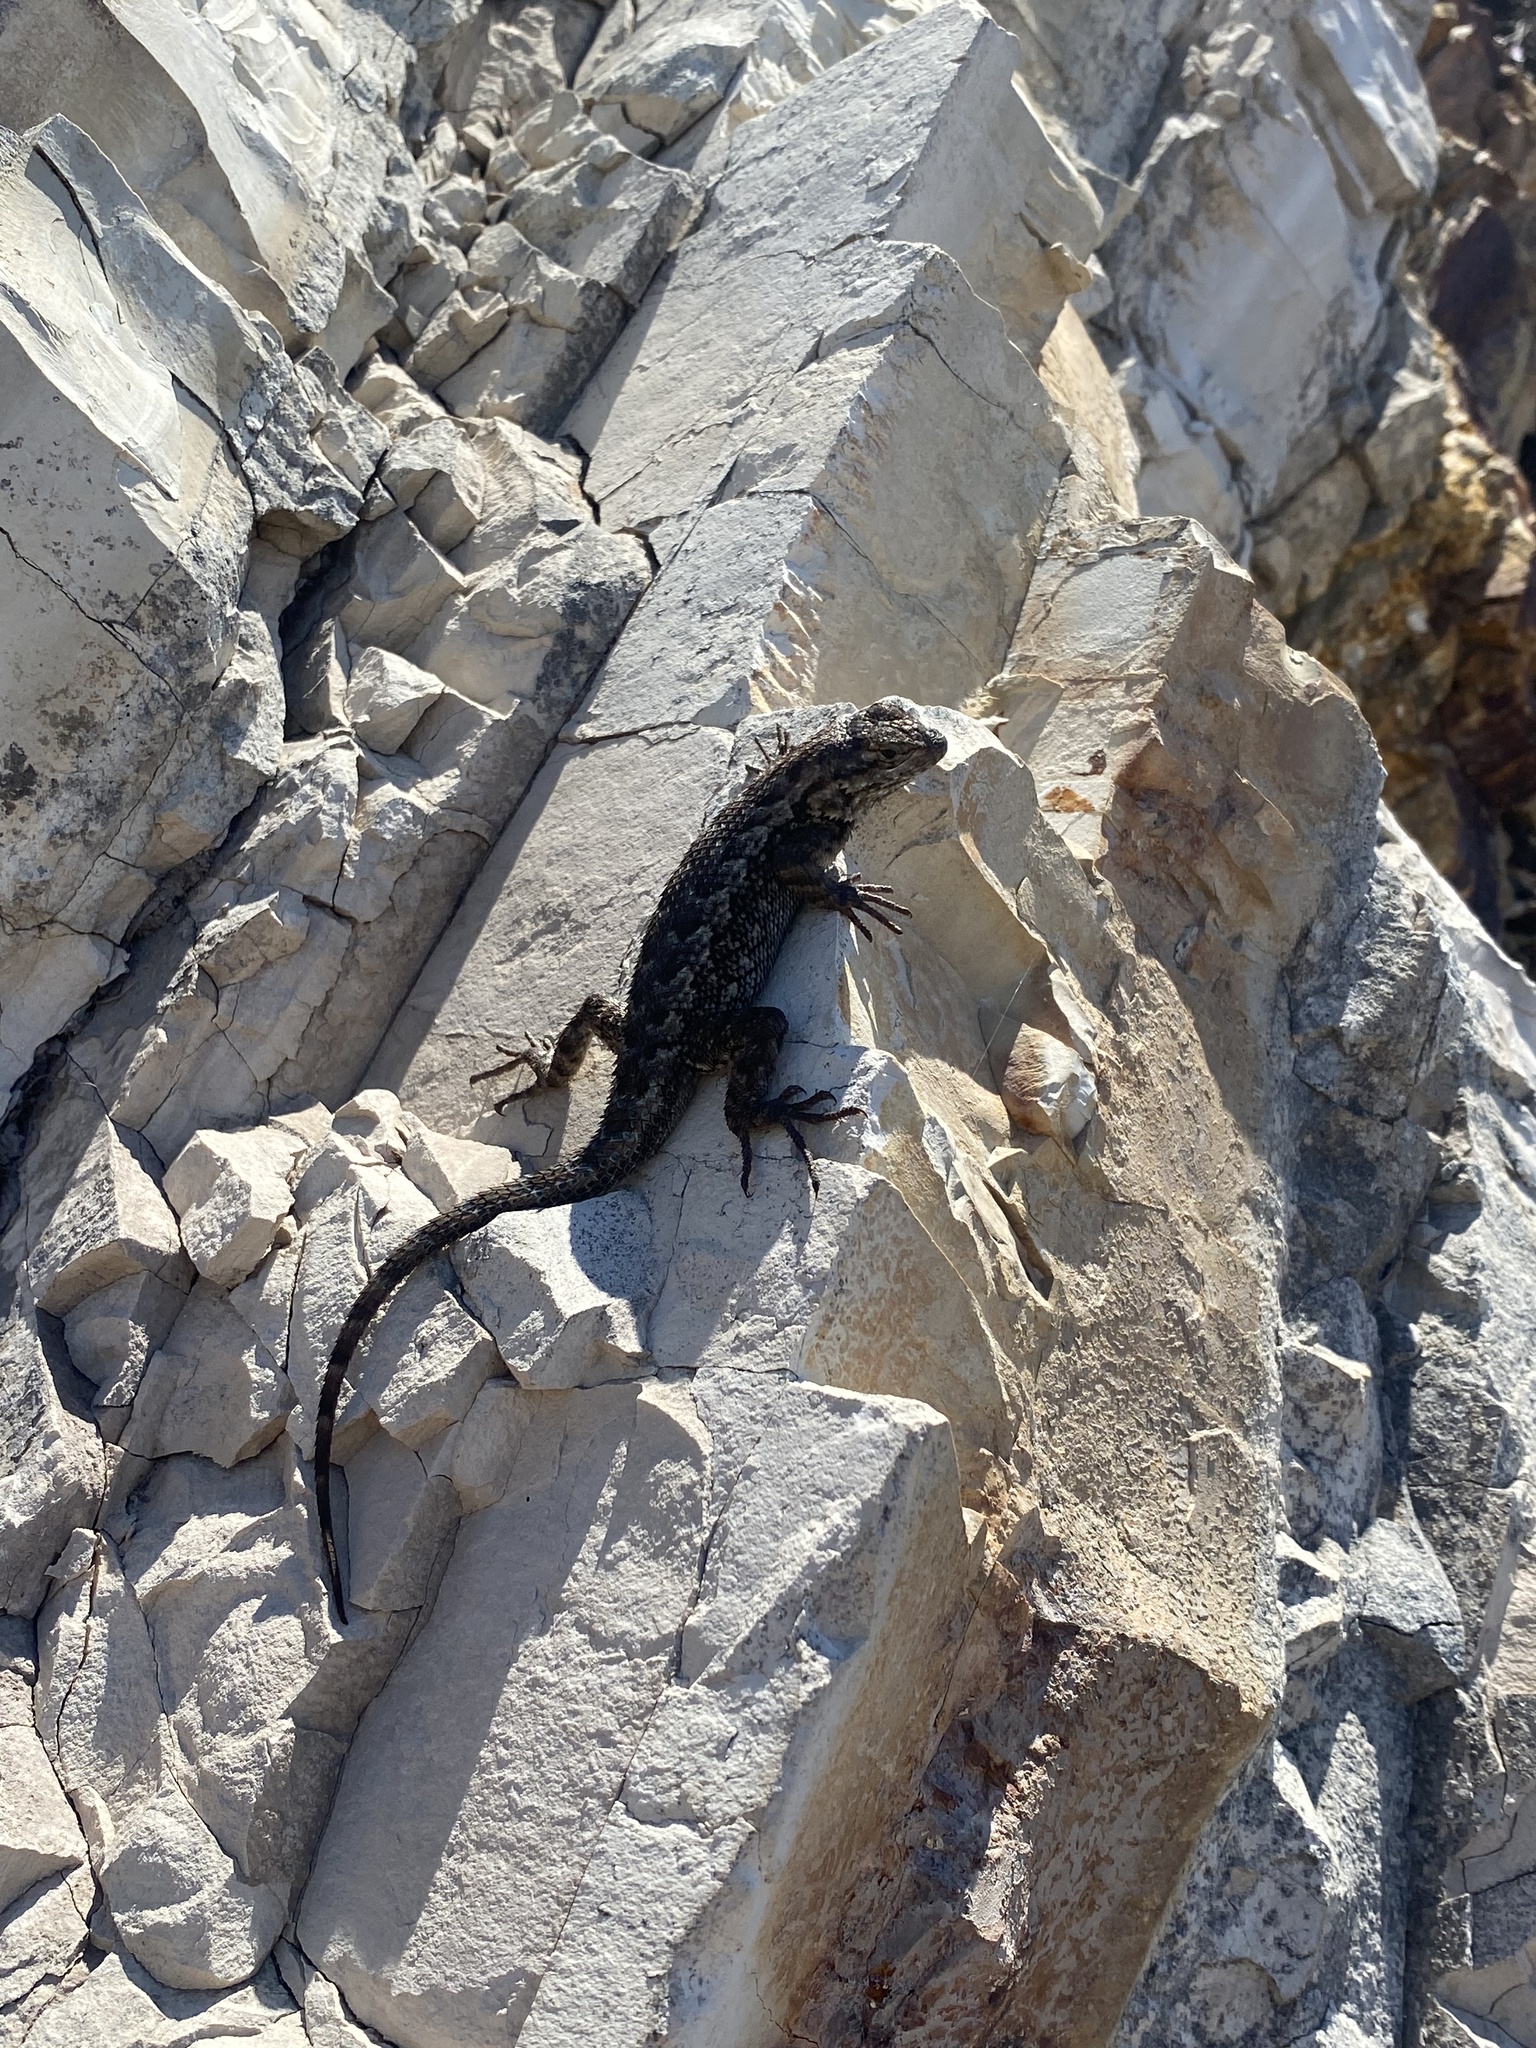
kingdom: Animalia
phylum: Chordata
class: Squamata
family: Phrynosomatidae
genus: Sceloporus
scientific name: Sceloporus occidentalis
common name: Western fence lizard
